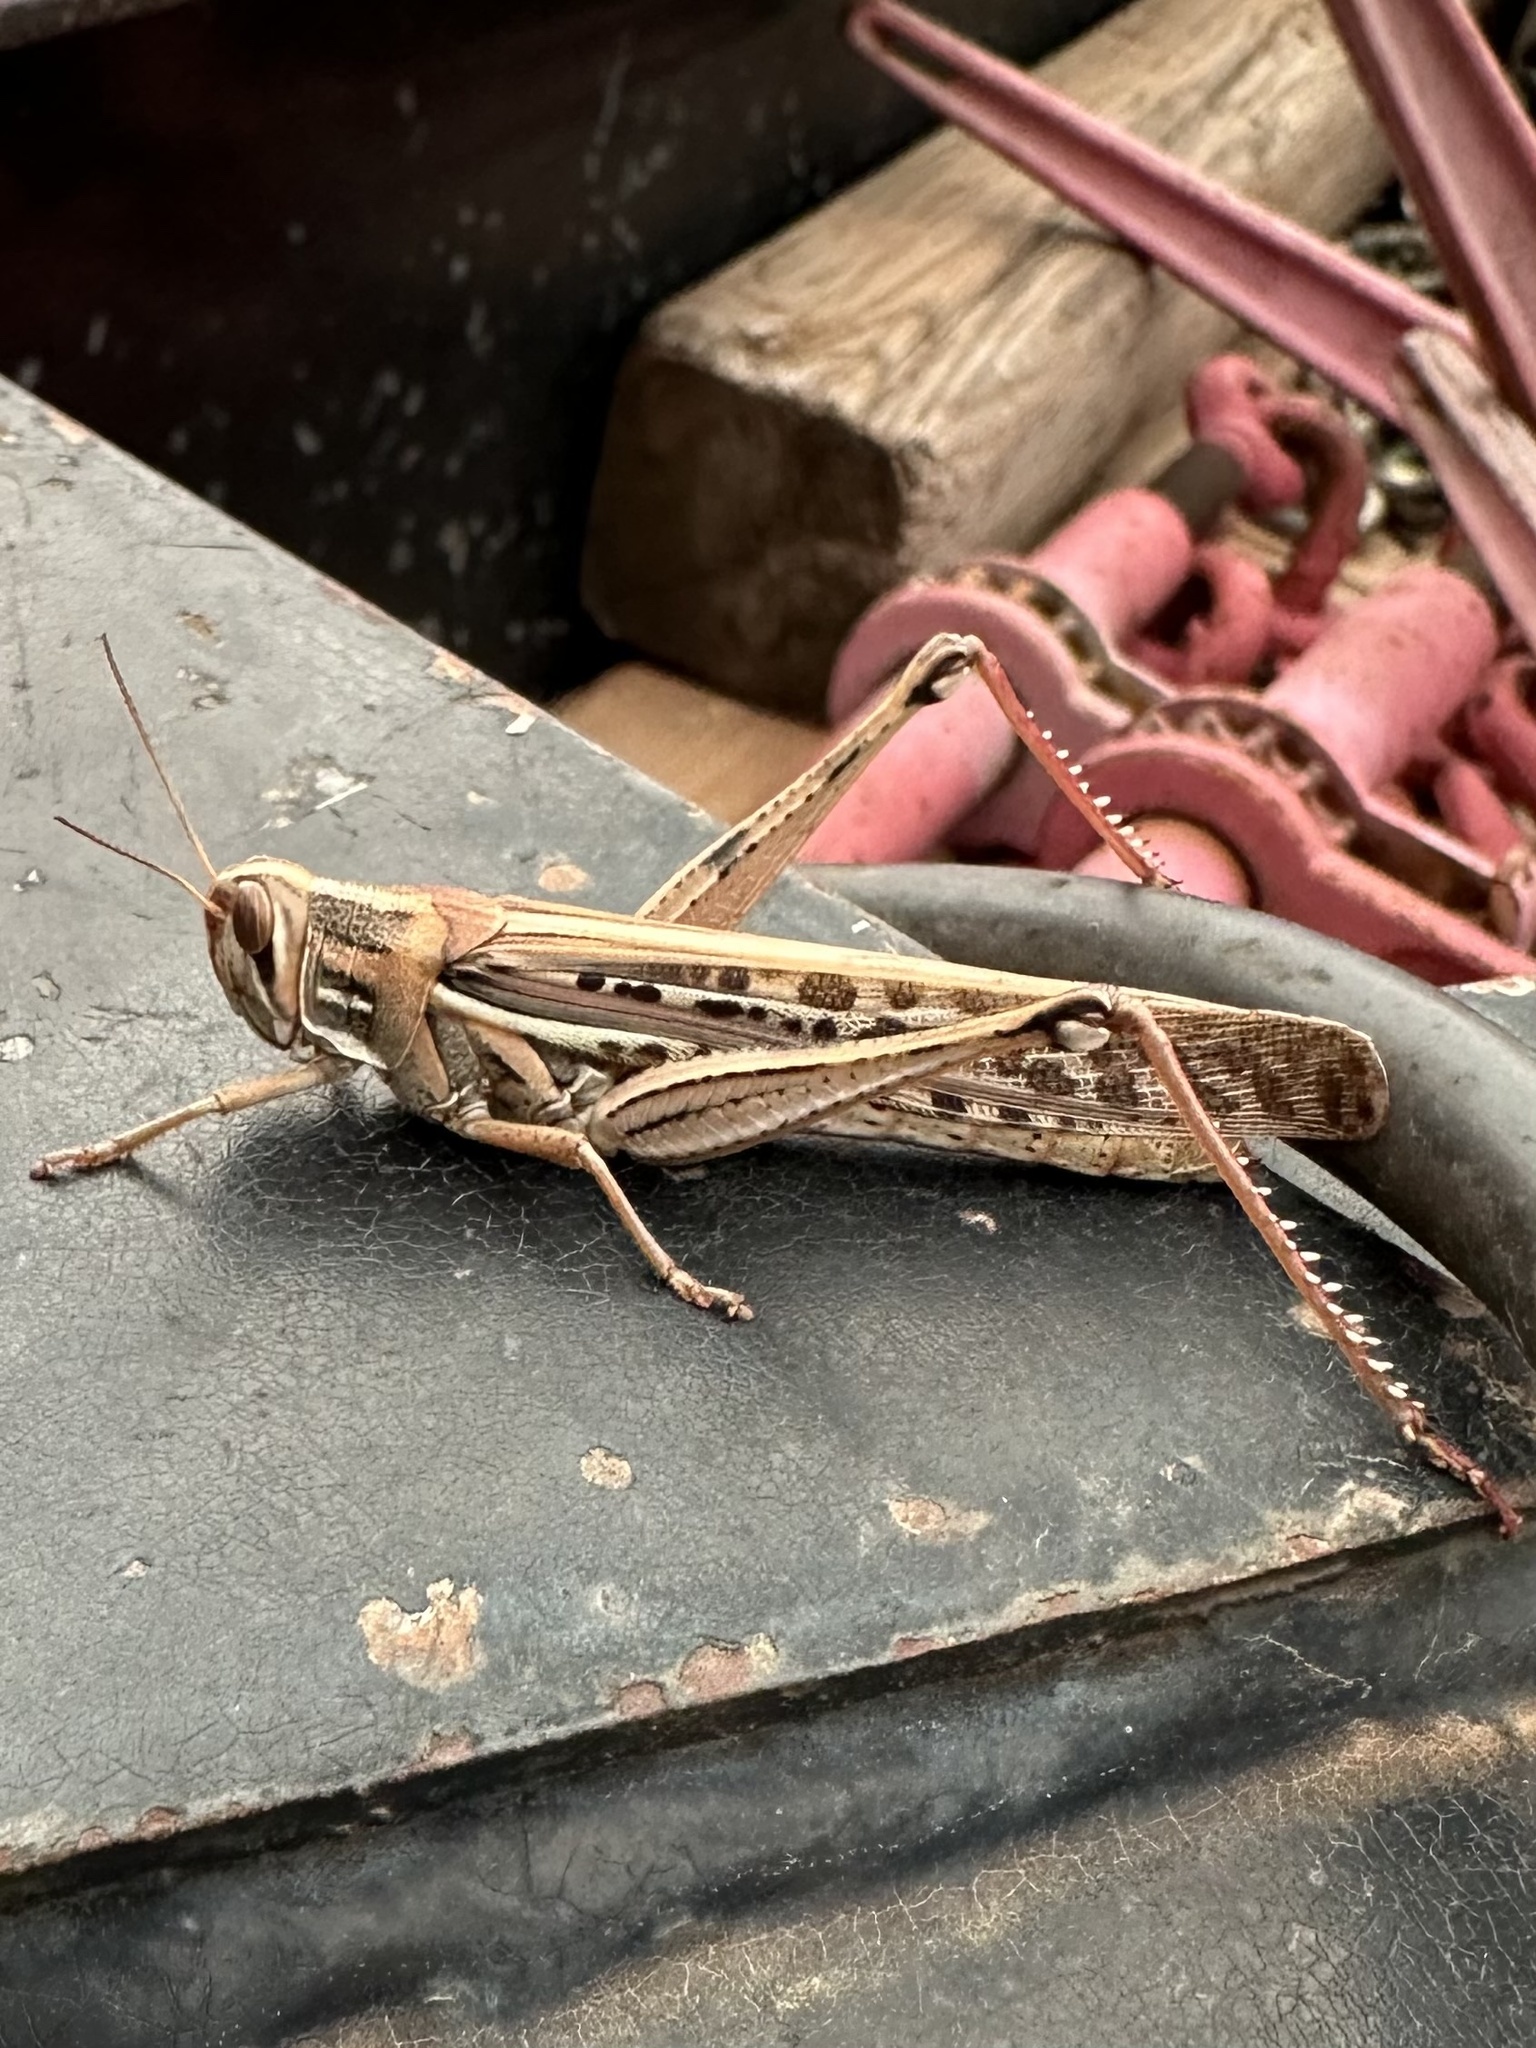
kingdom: Animalia
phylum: Arthropoda
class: Insecta
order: Orthoptera
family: Acrididae
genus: Schistocerca
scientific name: Schistocerca americana
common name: American bird locust
